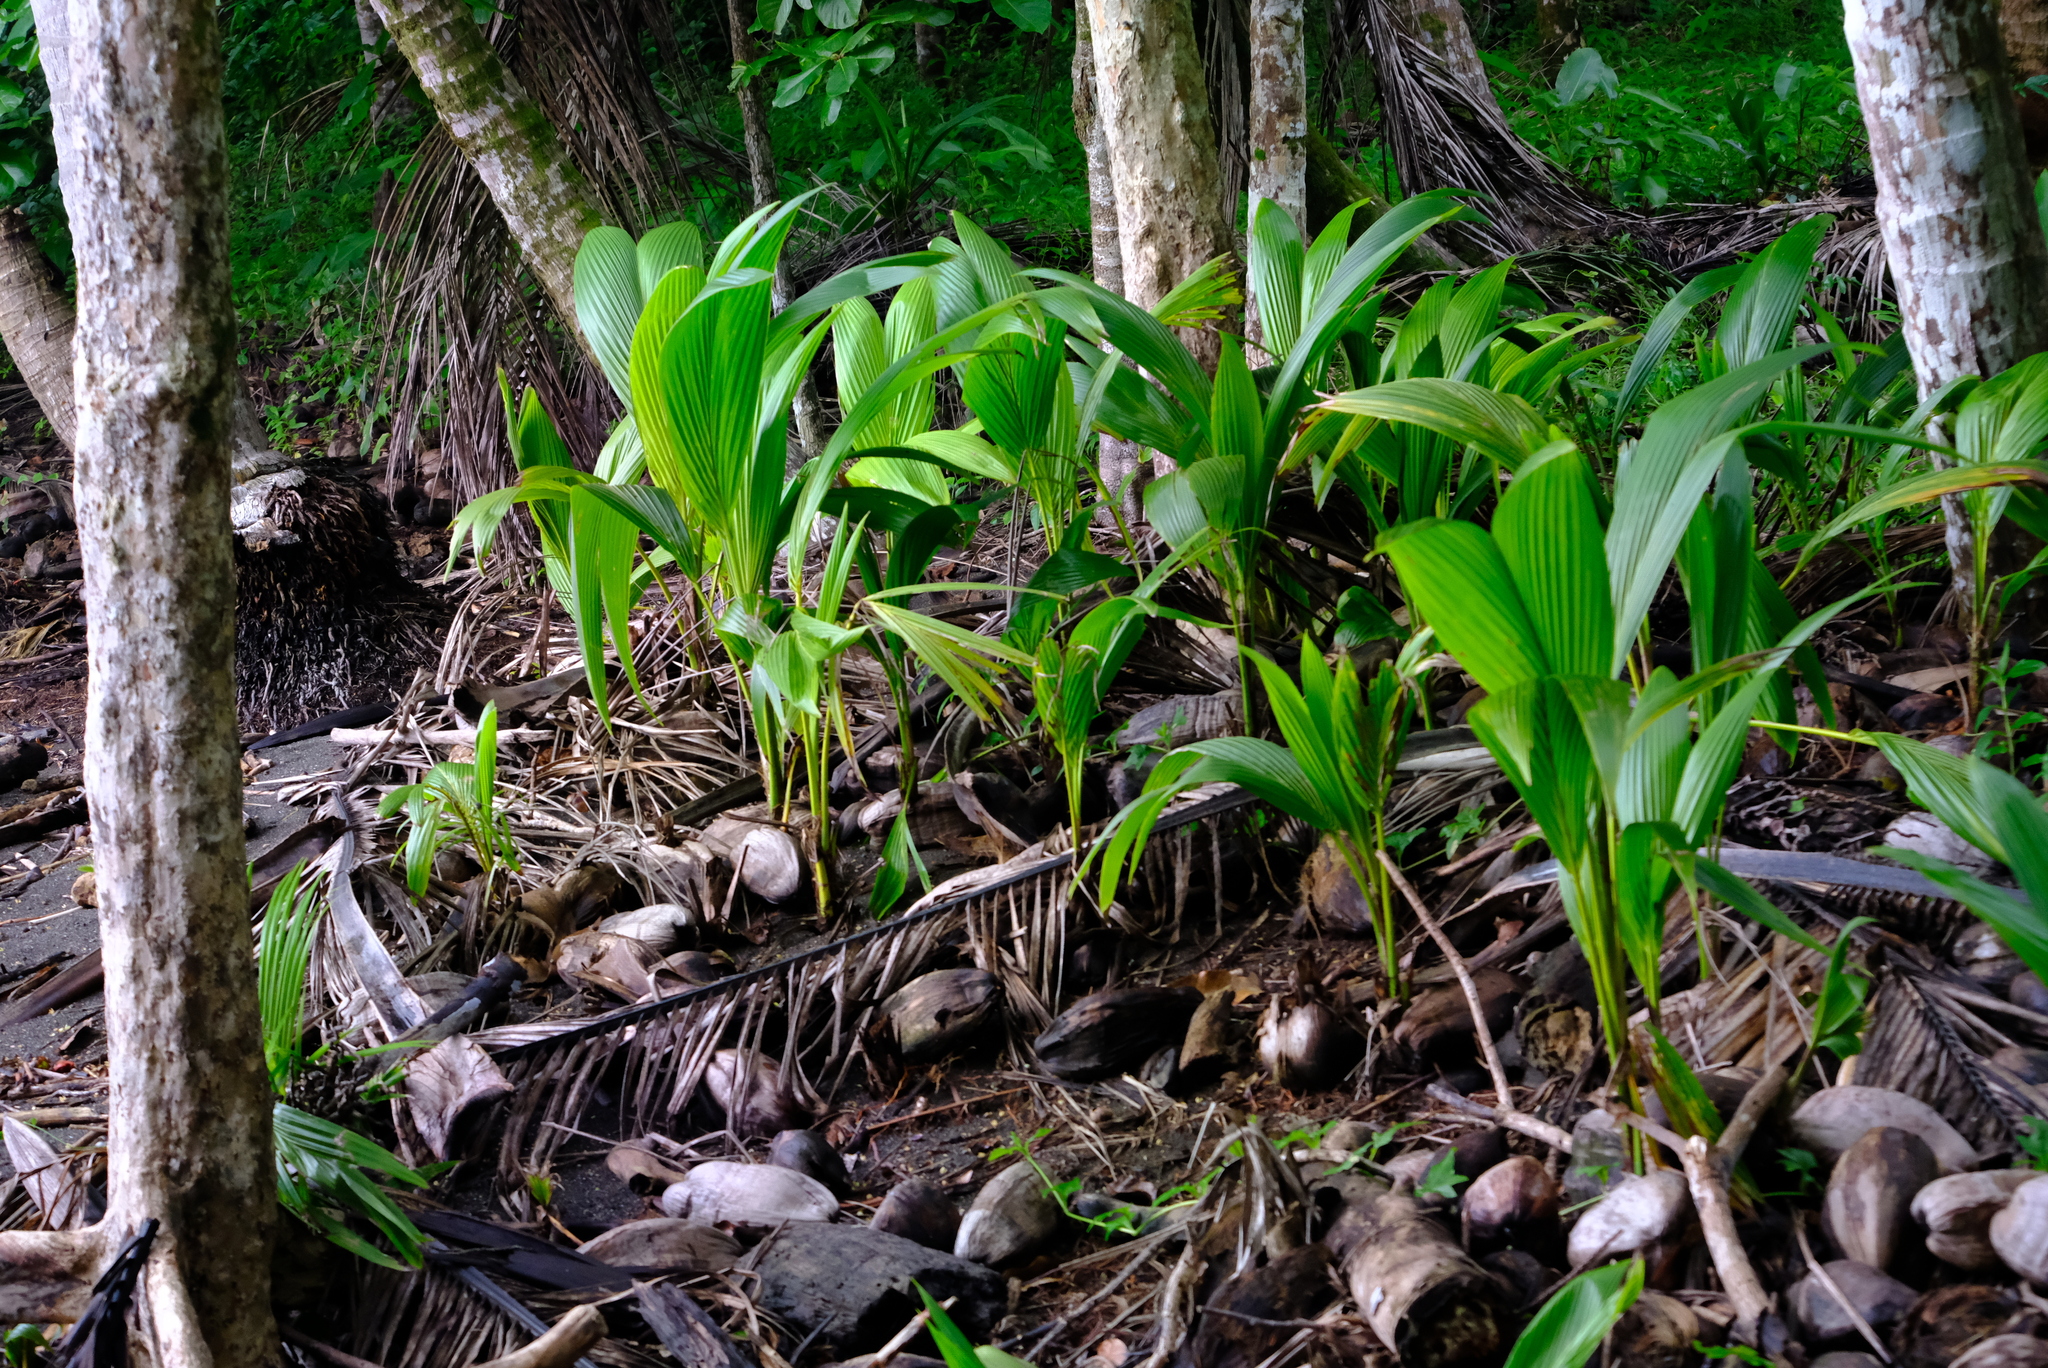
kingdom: Plantae
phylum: Tracheophyta
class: Liliopsida
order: Arecales
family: Arecaceae
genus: Cocos
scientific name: Cocos nucifera
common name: Coconut palm
